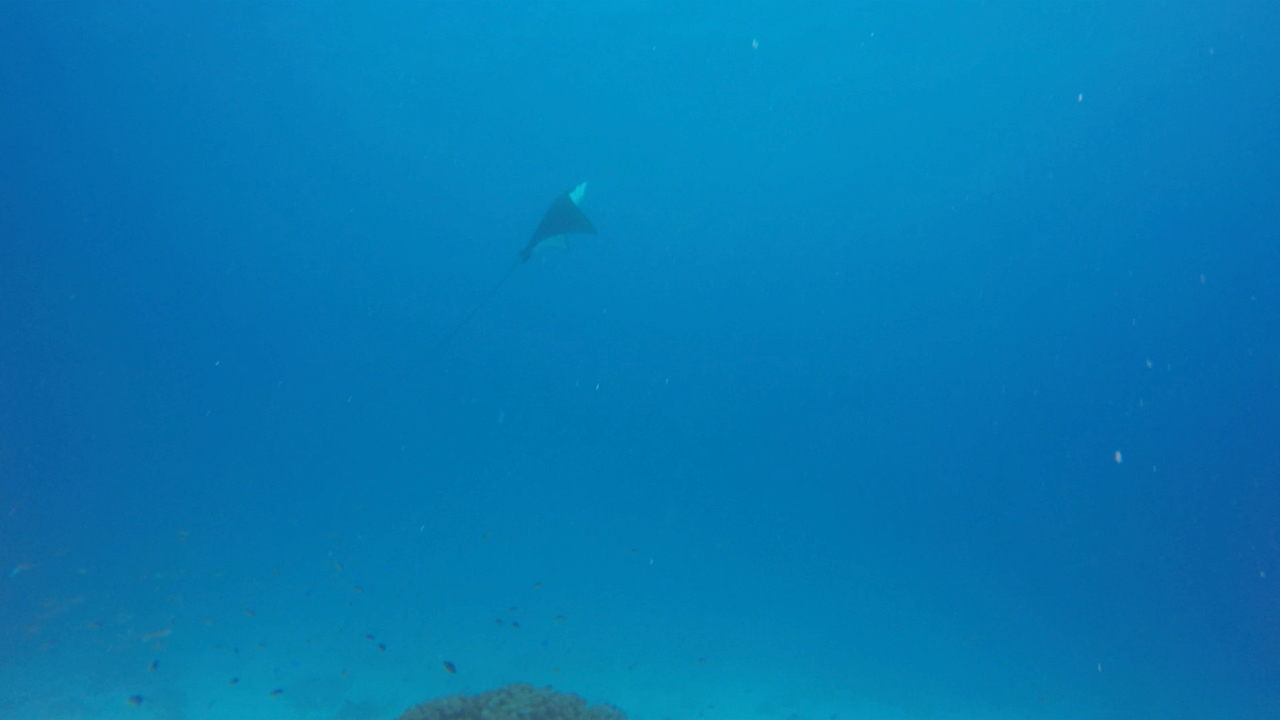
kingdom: Animalia
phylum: Chordata
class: Elasmobranchii
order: Myliobatiformes
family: Myliobatidae
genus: Aetobatus
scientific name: Aetobatus ocellatus
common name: Ocellated eagle ray
